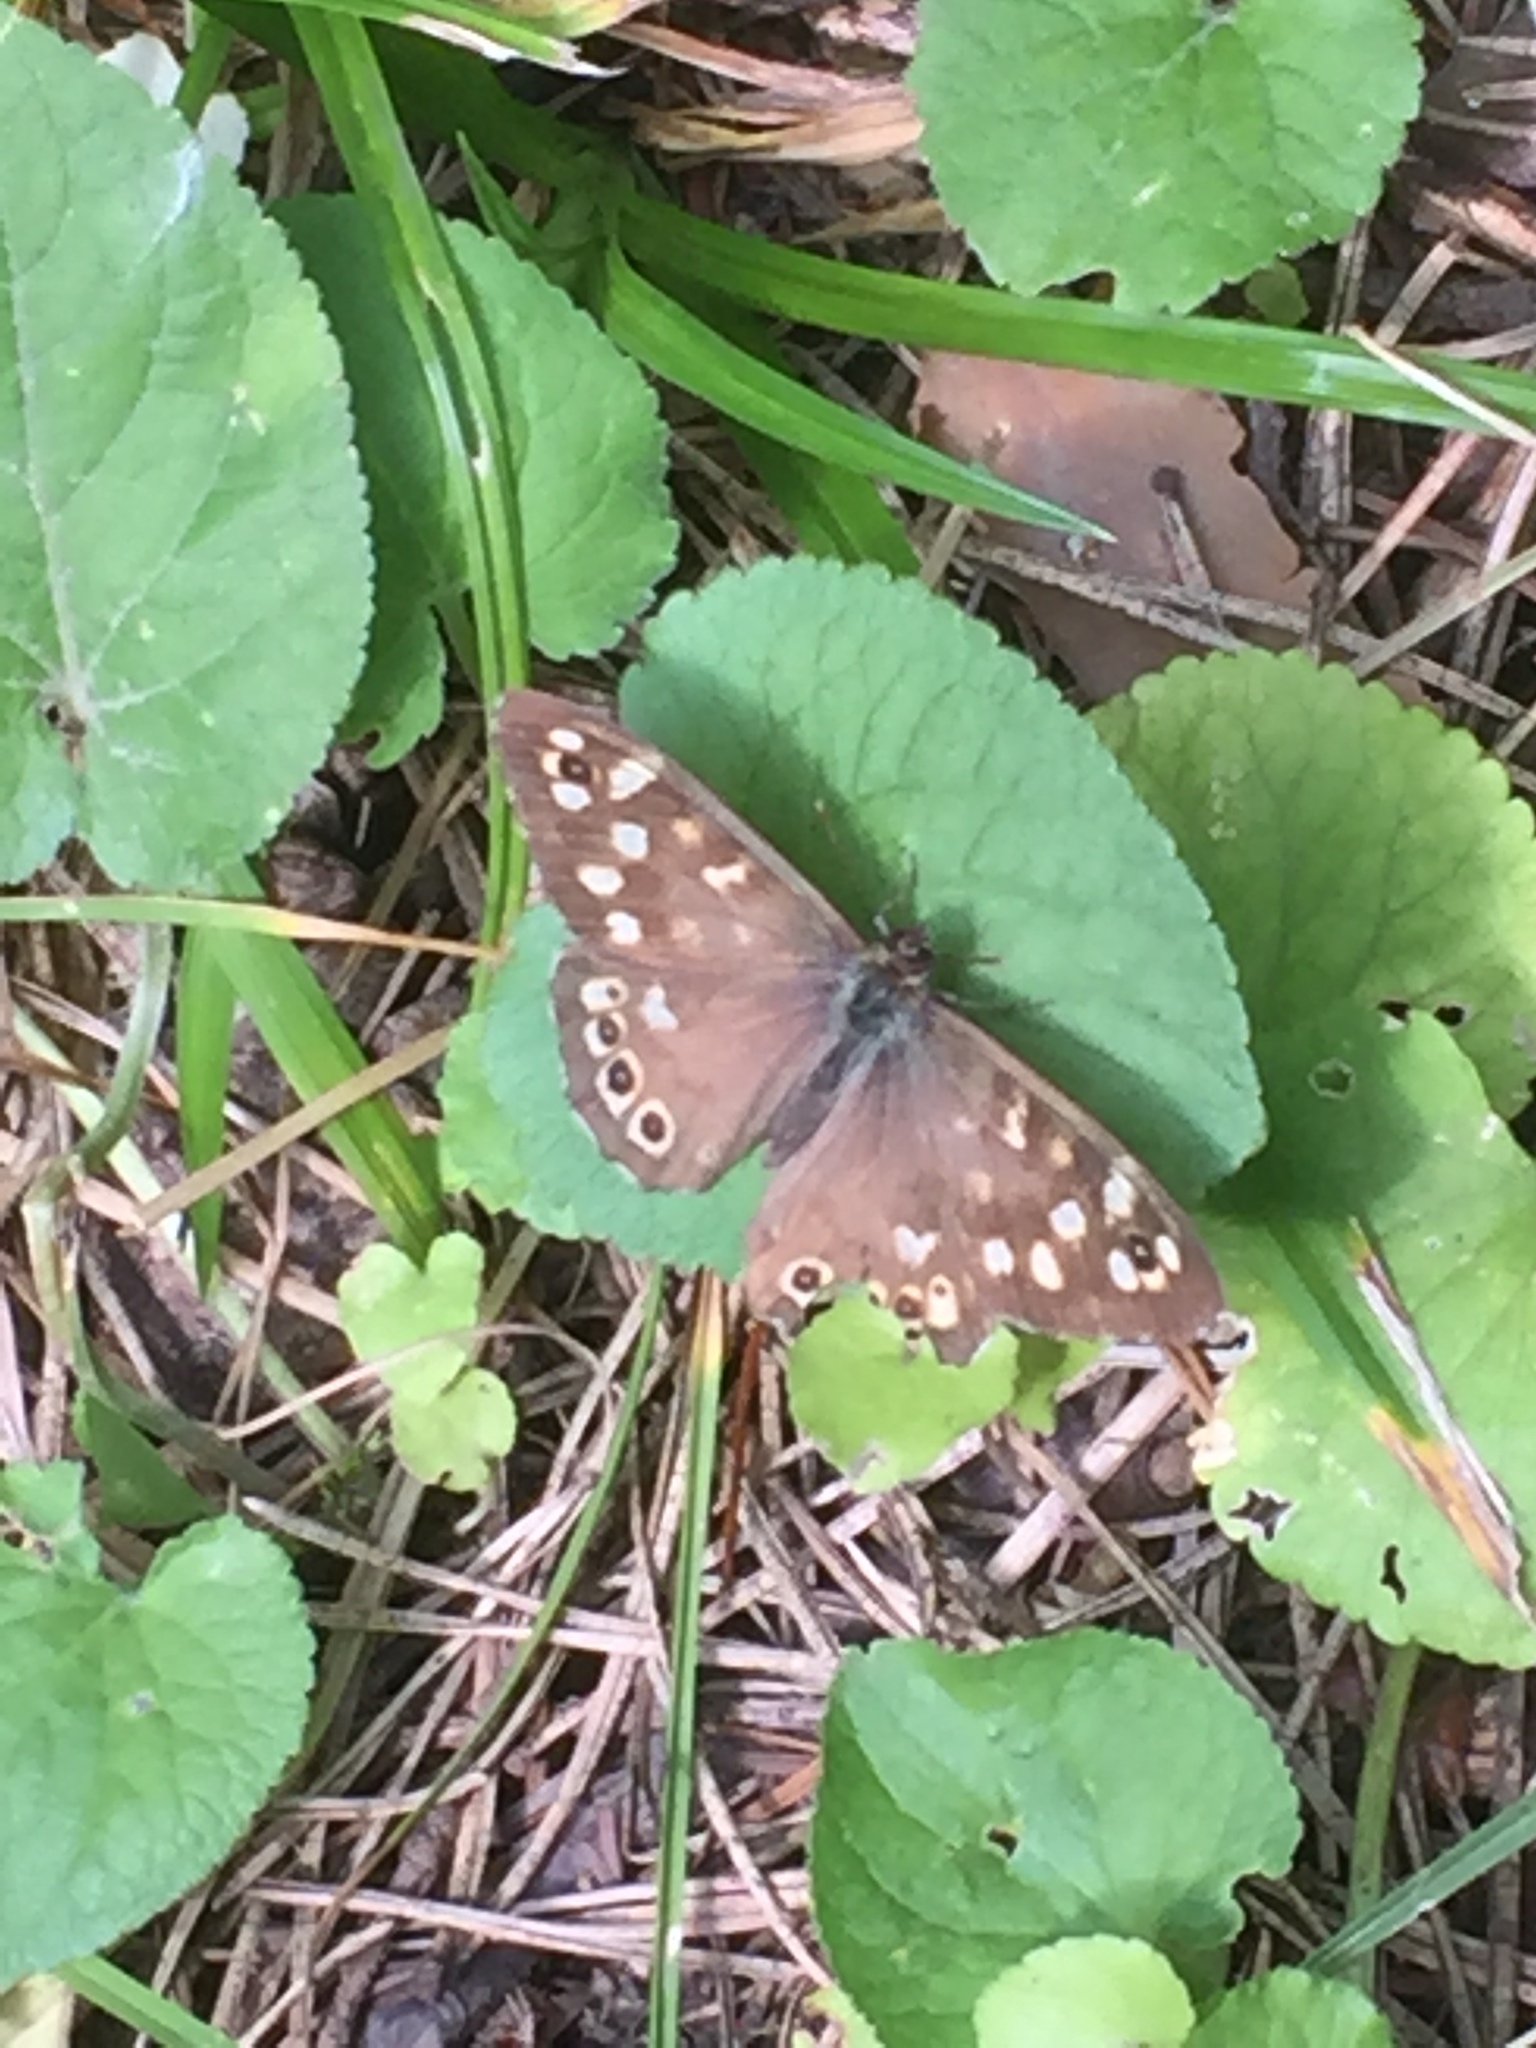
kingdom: Animalia
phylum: Arthropoda
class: Insecta
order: Lepidoptera
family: Nymphalidae
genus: Pararge
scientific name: Pararge aegeria
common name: Speckled wood
